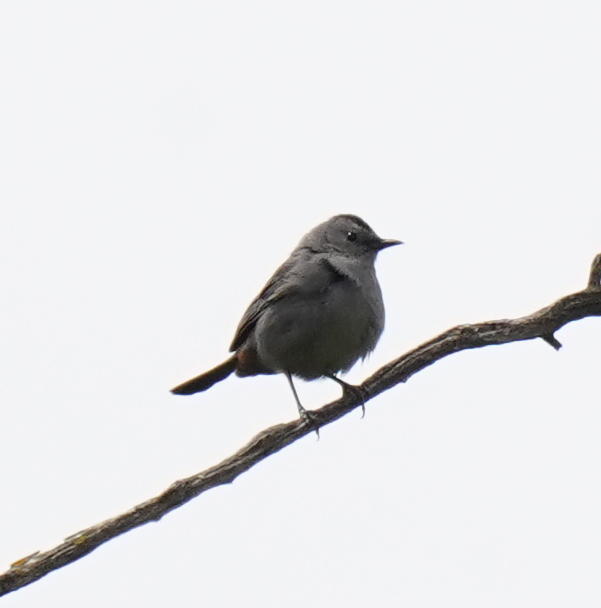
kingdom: Animalia
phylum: Chordata
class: Aves
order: Passeriformes
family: Mimidae
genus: Dumetella
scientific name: Dumetella carolinensis
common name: Gray catbird
